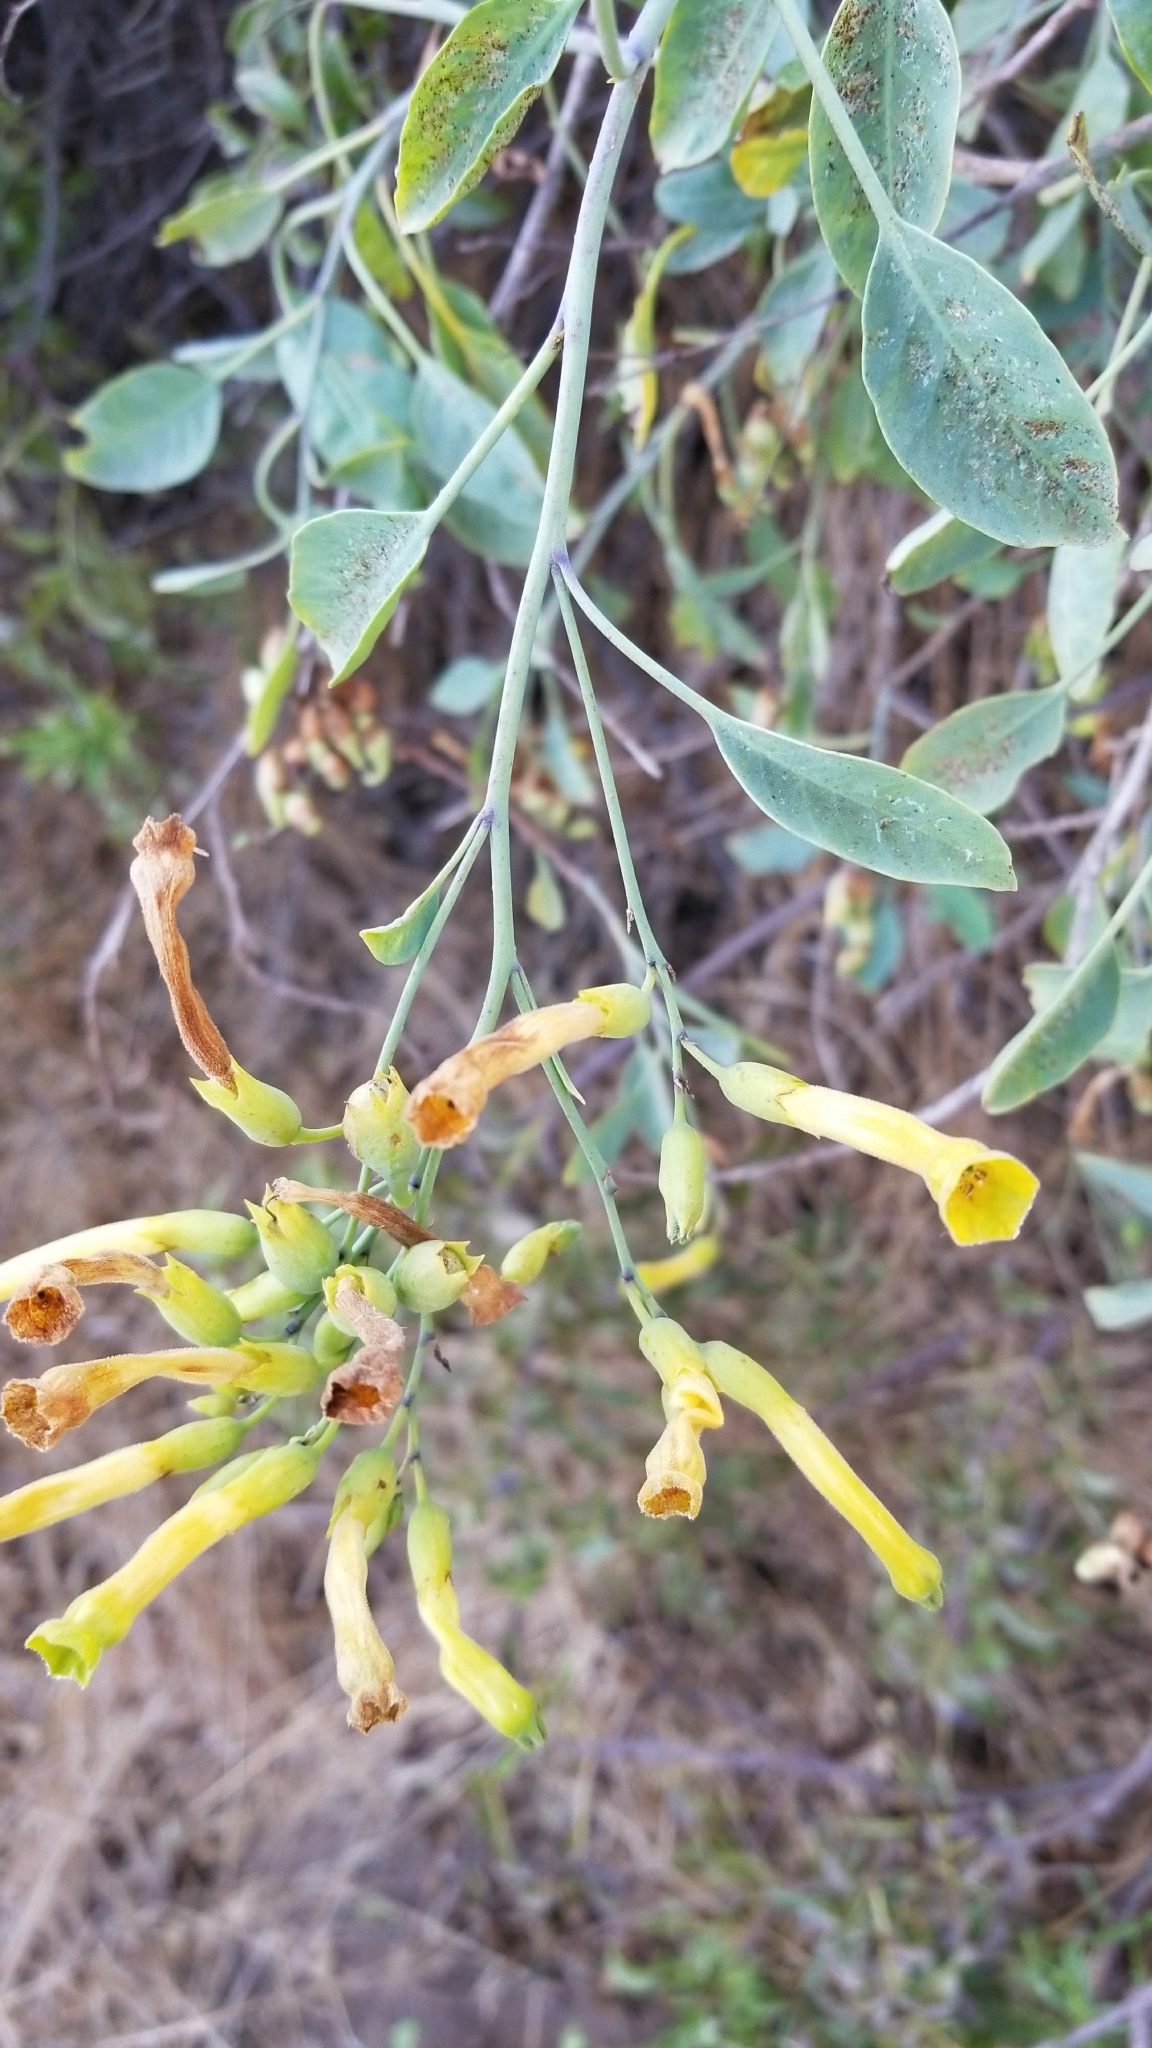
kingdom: Plantae
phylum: Tracheophyta
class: Magnoliopsida
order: Solanales
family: Solanaceae
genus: Nicotiana
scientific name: Nicotiana glauca
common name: Tree tobacco
